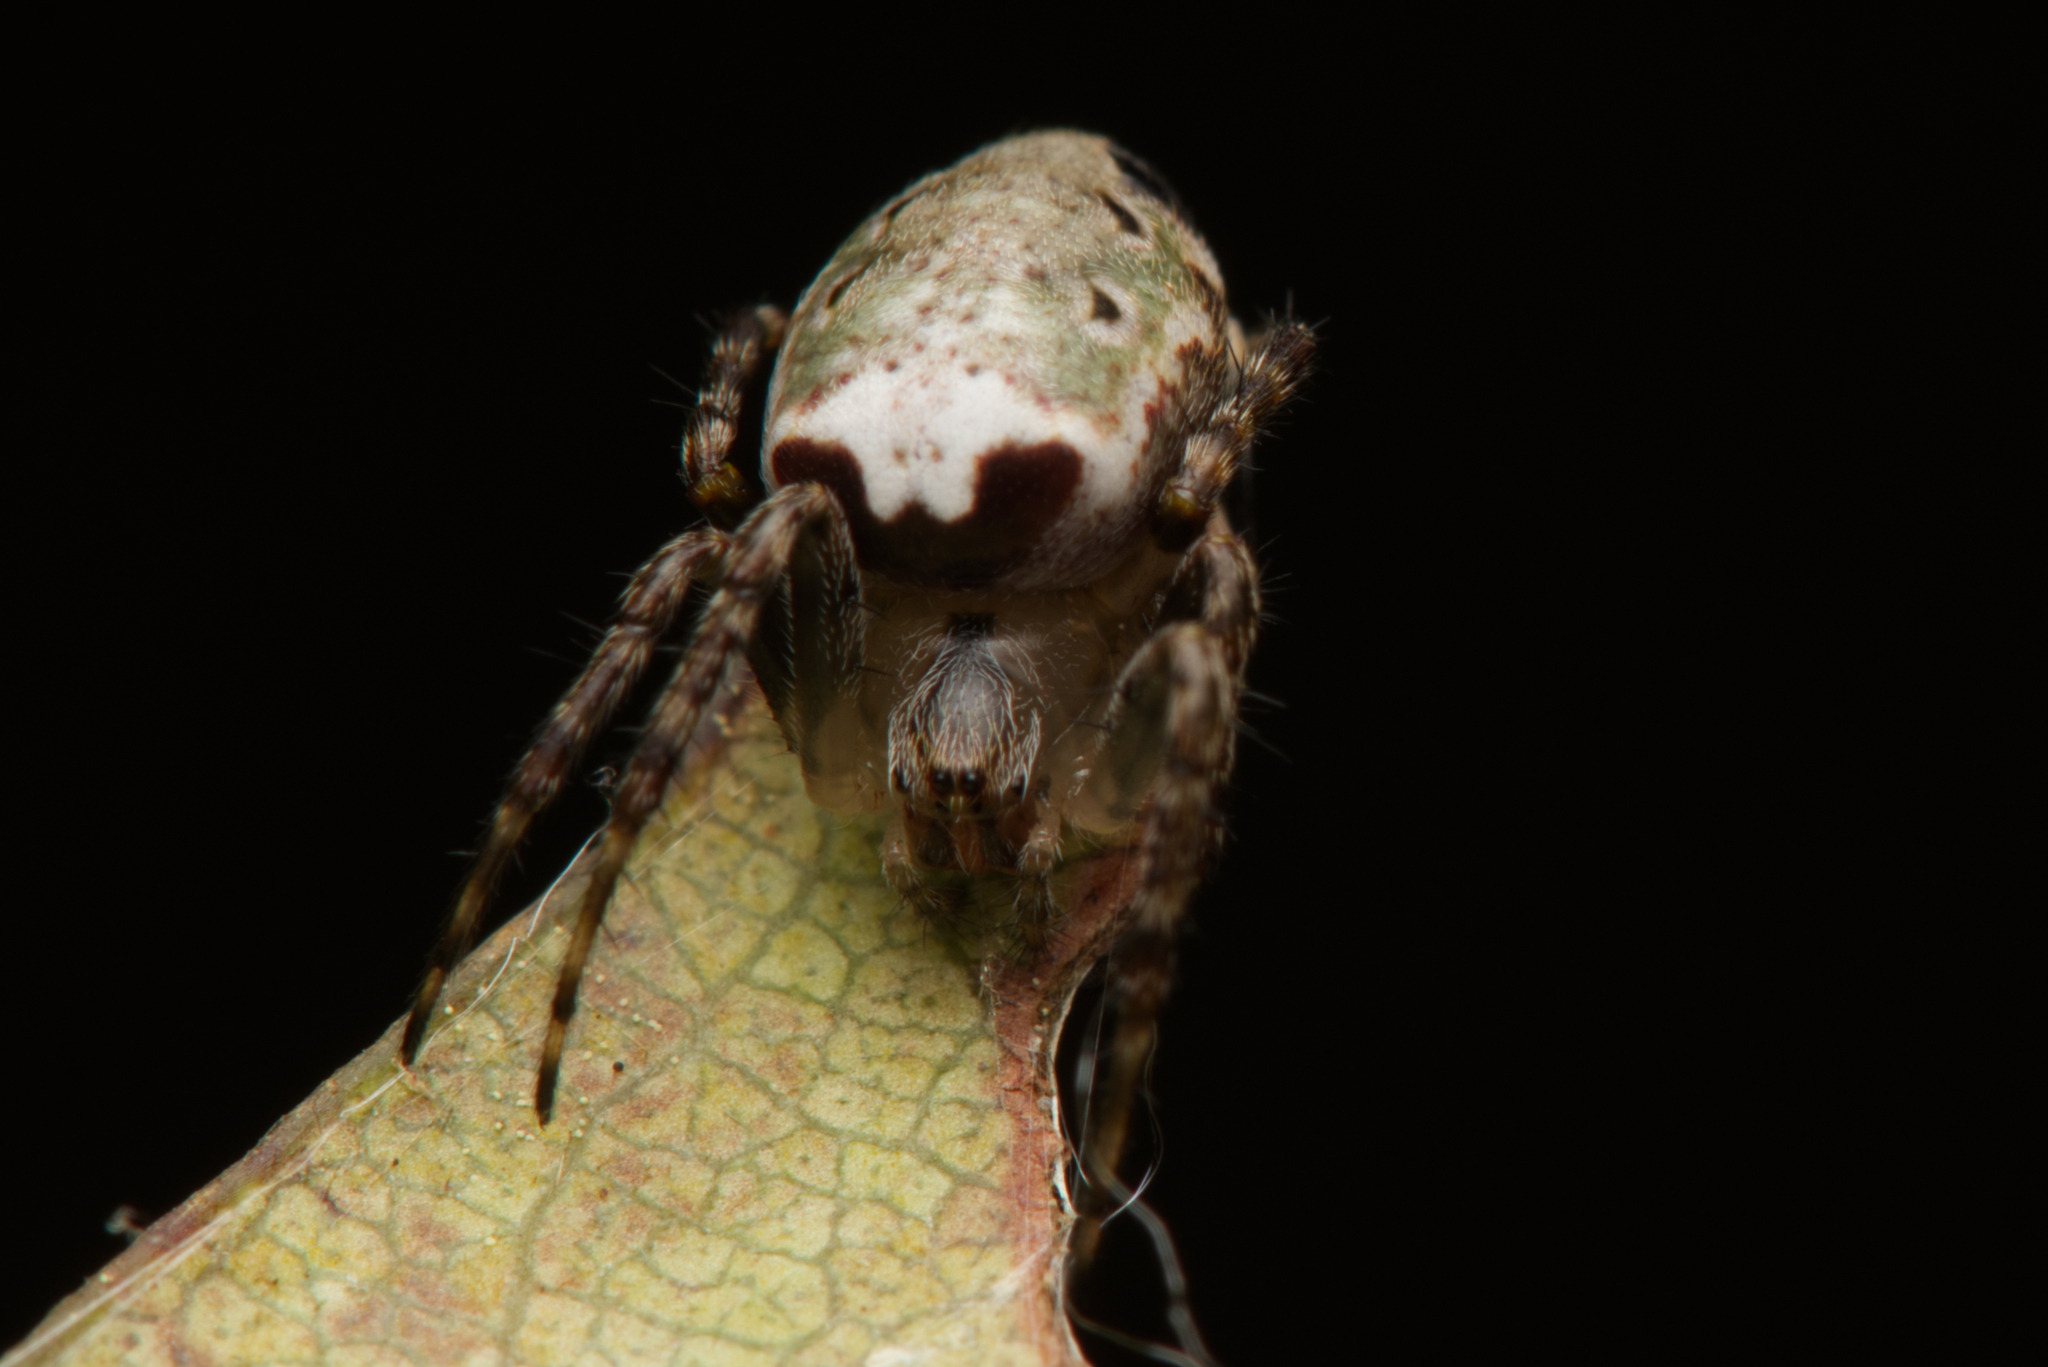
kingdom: Animalia
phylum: Arthropoda
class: Arachnida
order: Araneae
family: Araneidae
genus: Plebs
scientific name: Plebs eburnus
